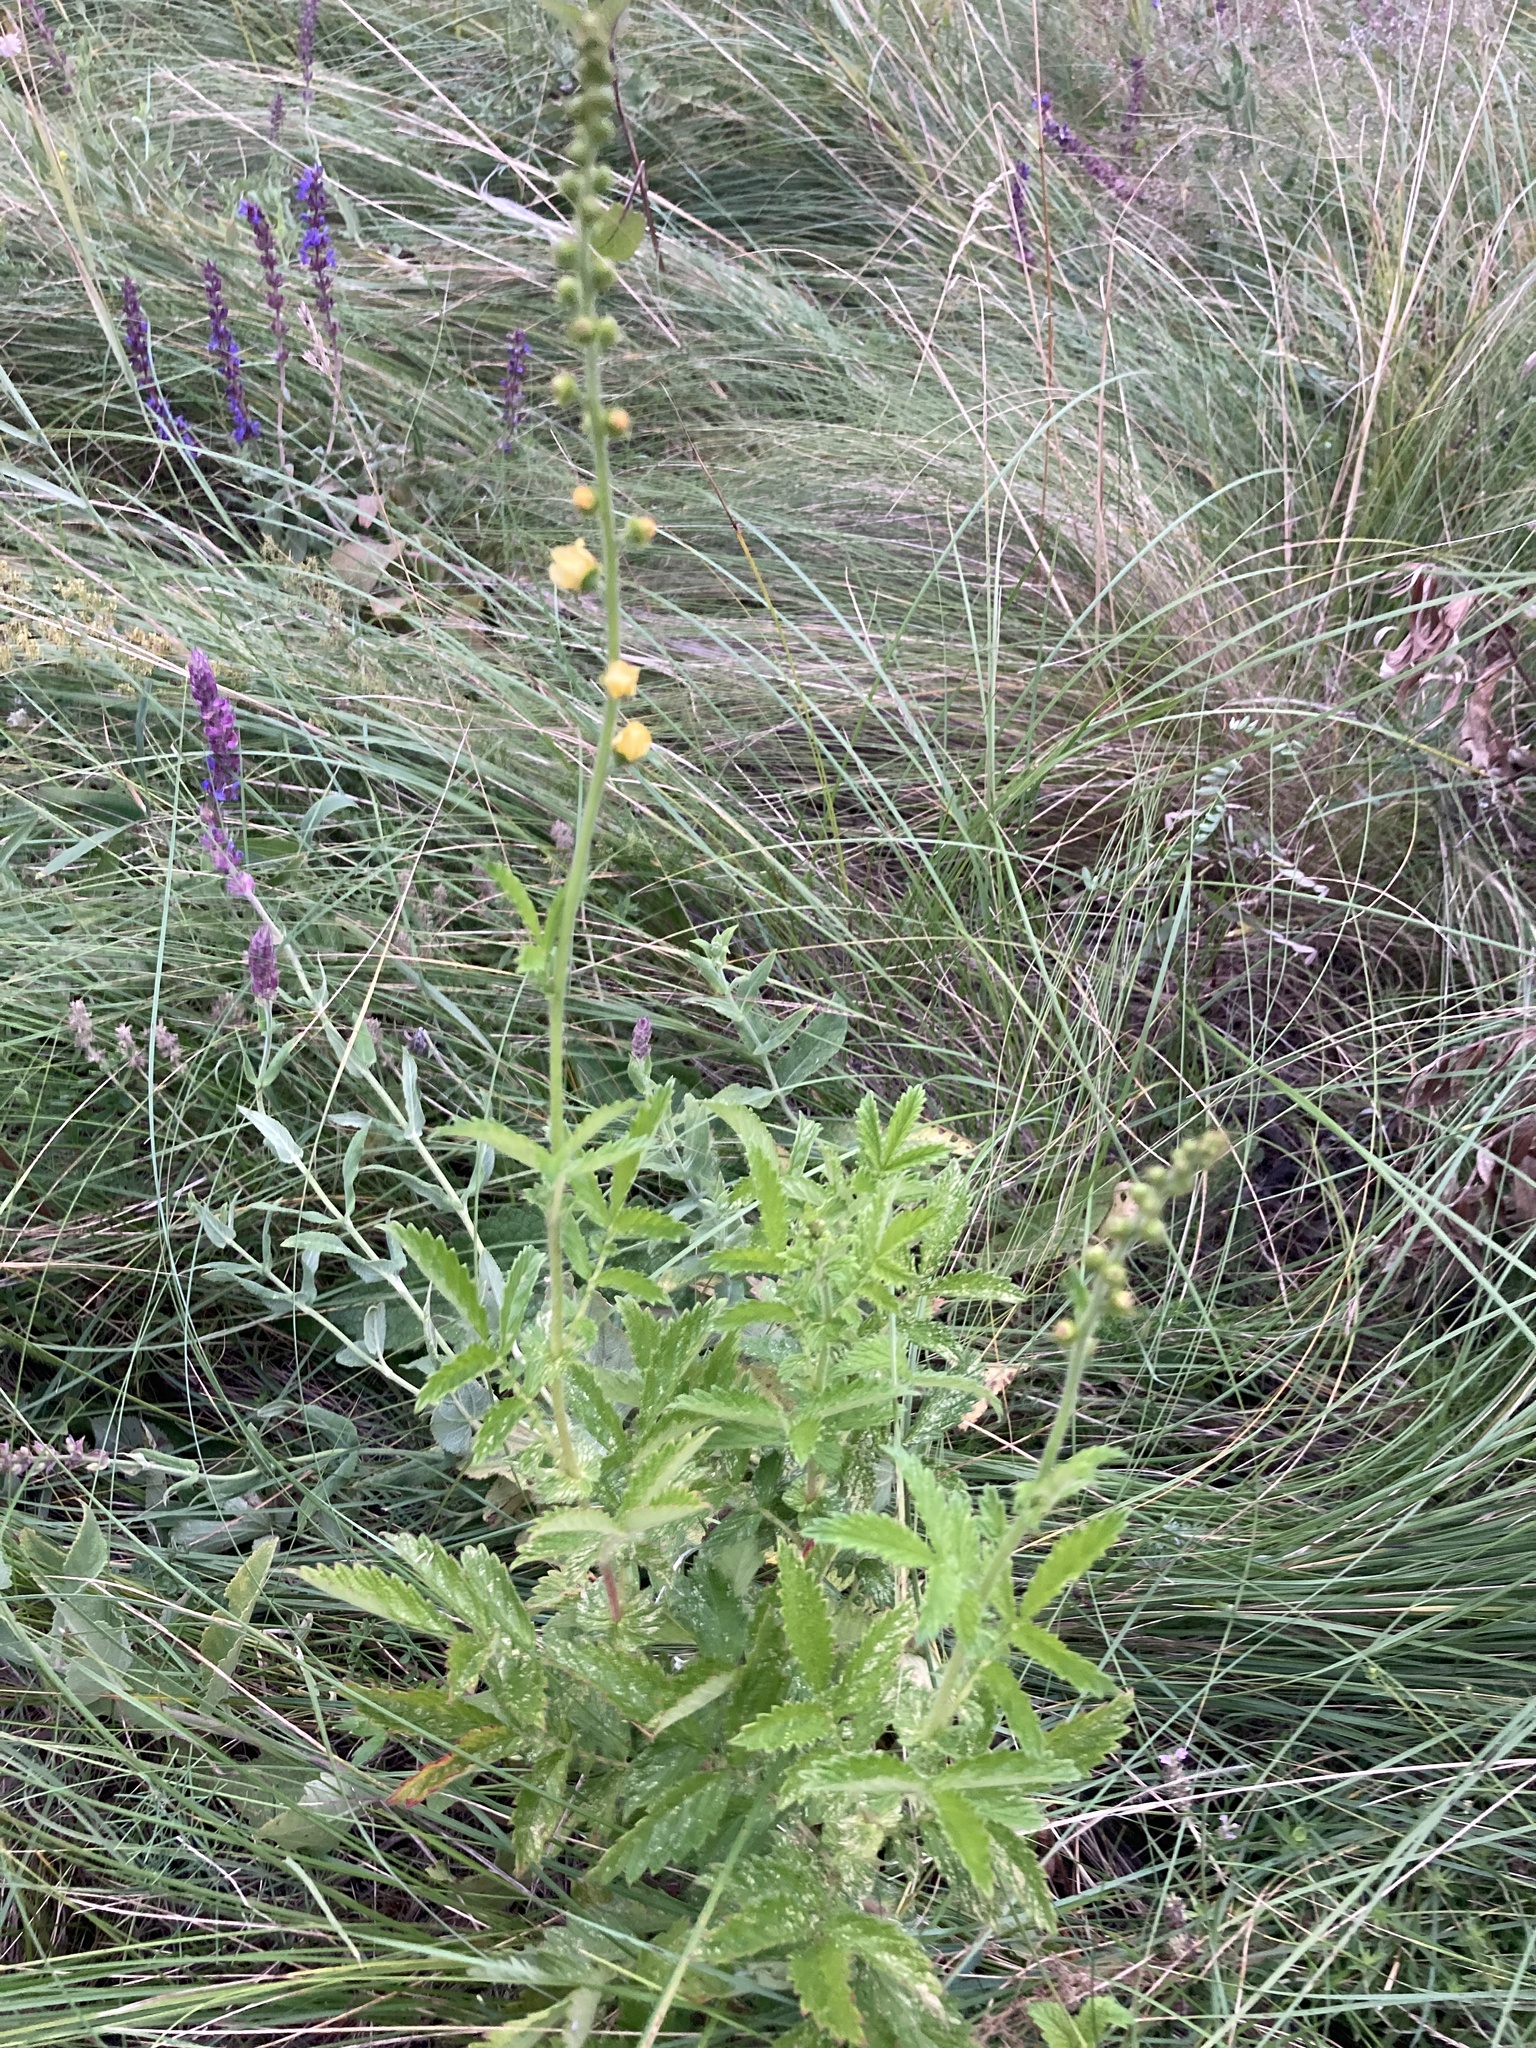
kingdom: Plantae
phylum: Tracheophyta
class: Magnoliopsida
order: Rosales
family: Rosaceae
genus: Agrimonia
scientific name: Agrimonia eupatoria
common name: Agrimony
